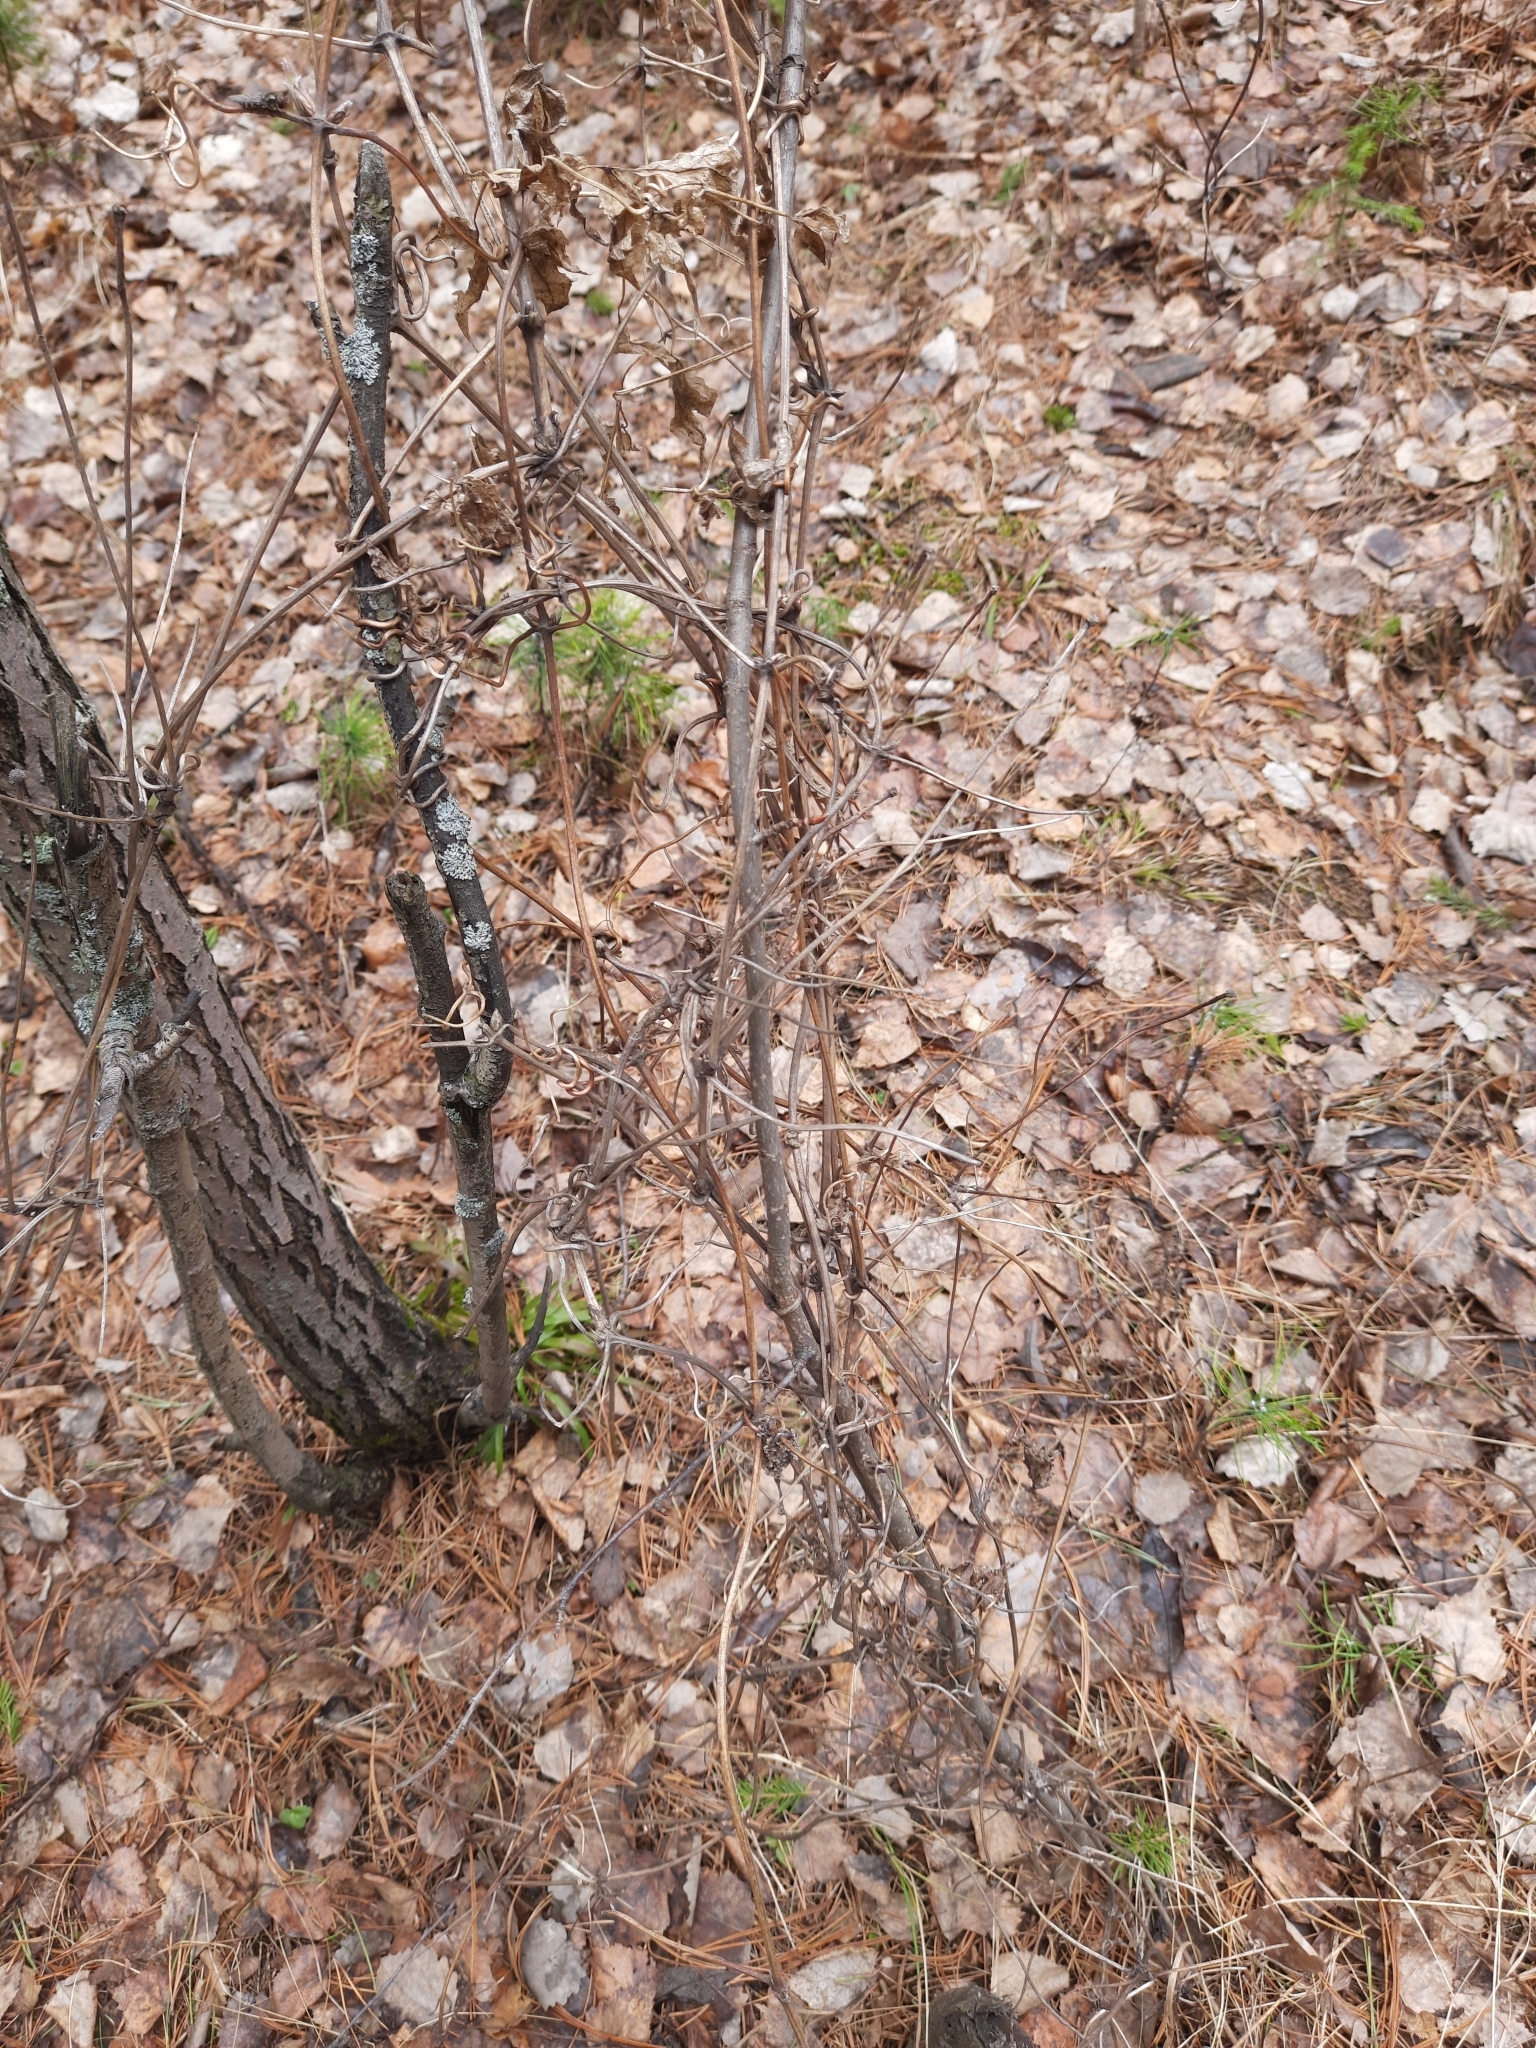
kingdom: Plantae
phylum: Tracheophyta
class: Magnoliopsida
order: Ranunculales
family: Ranunculaceae
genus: Clematis
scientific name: Clematis sibirica
